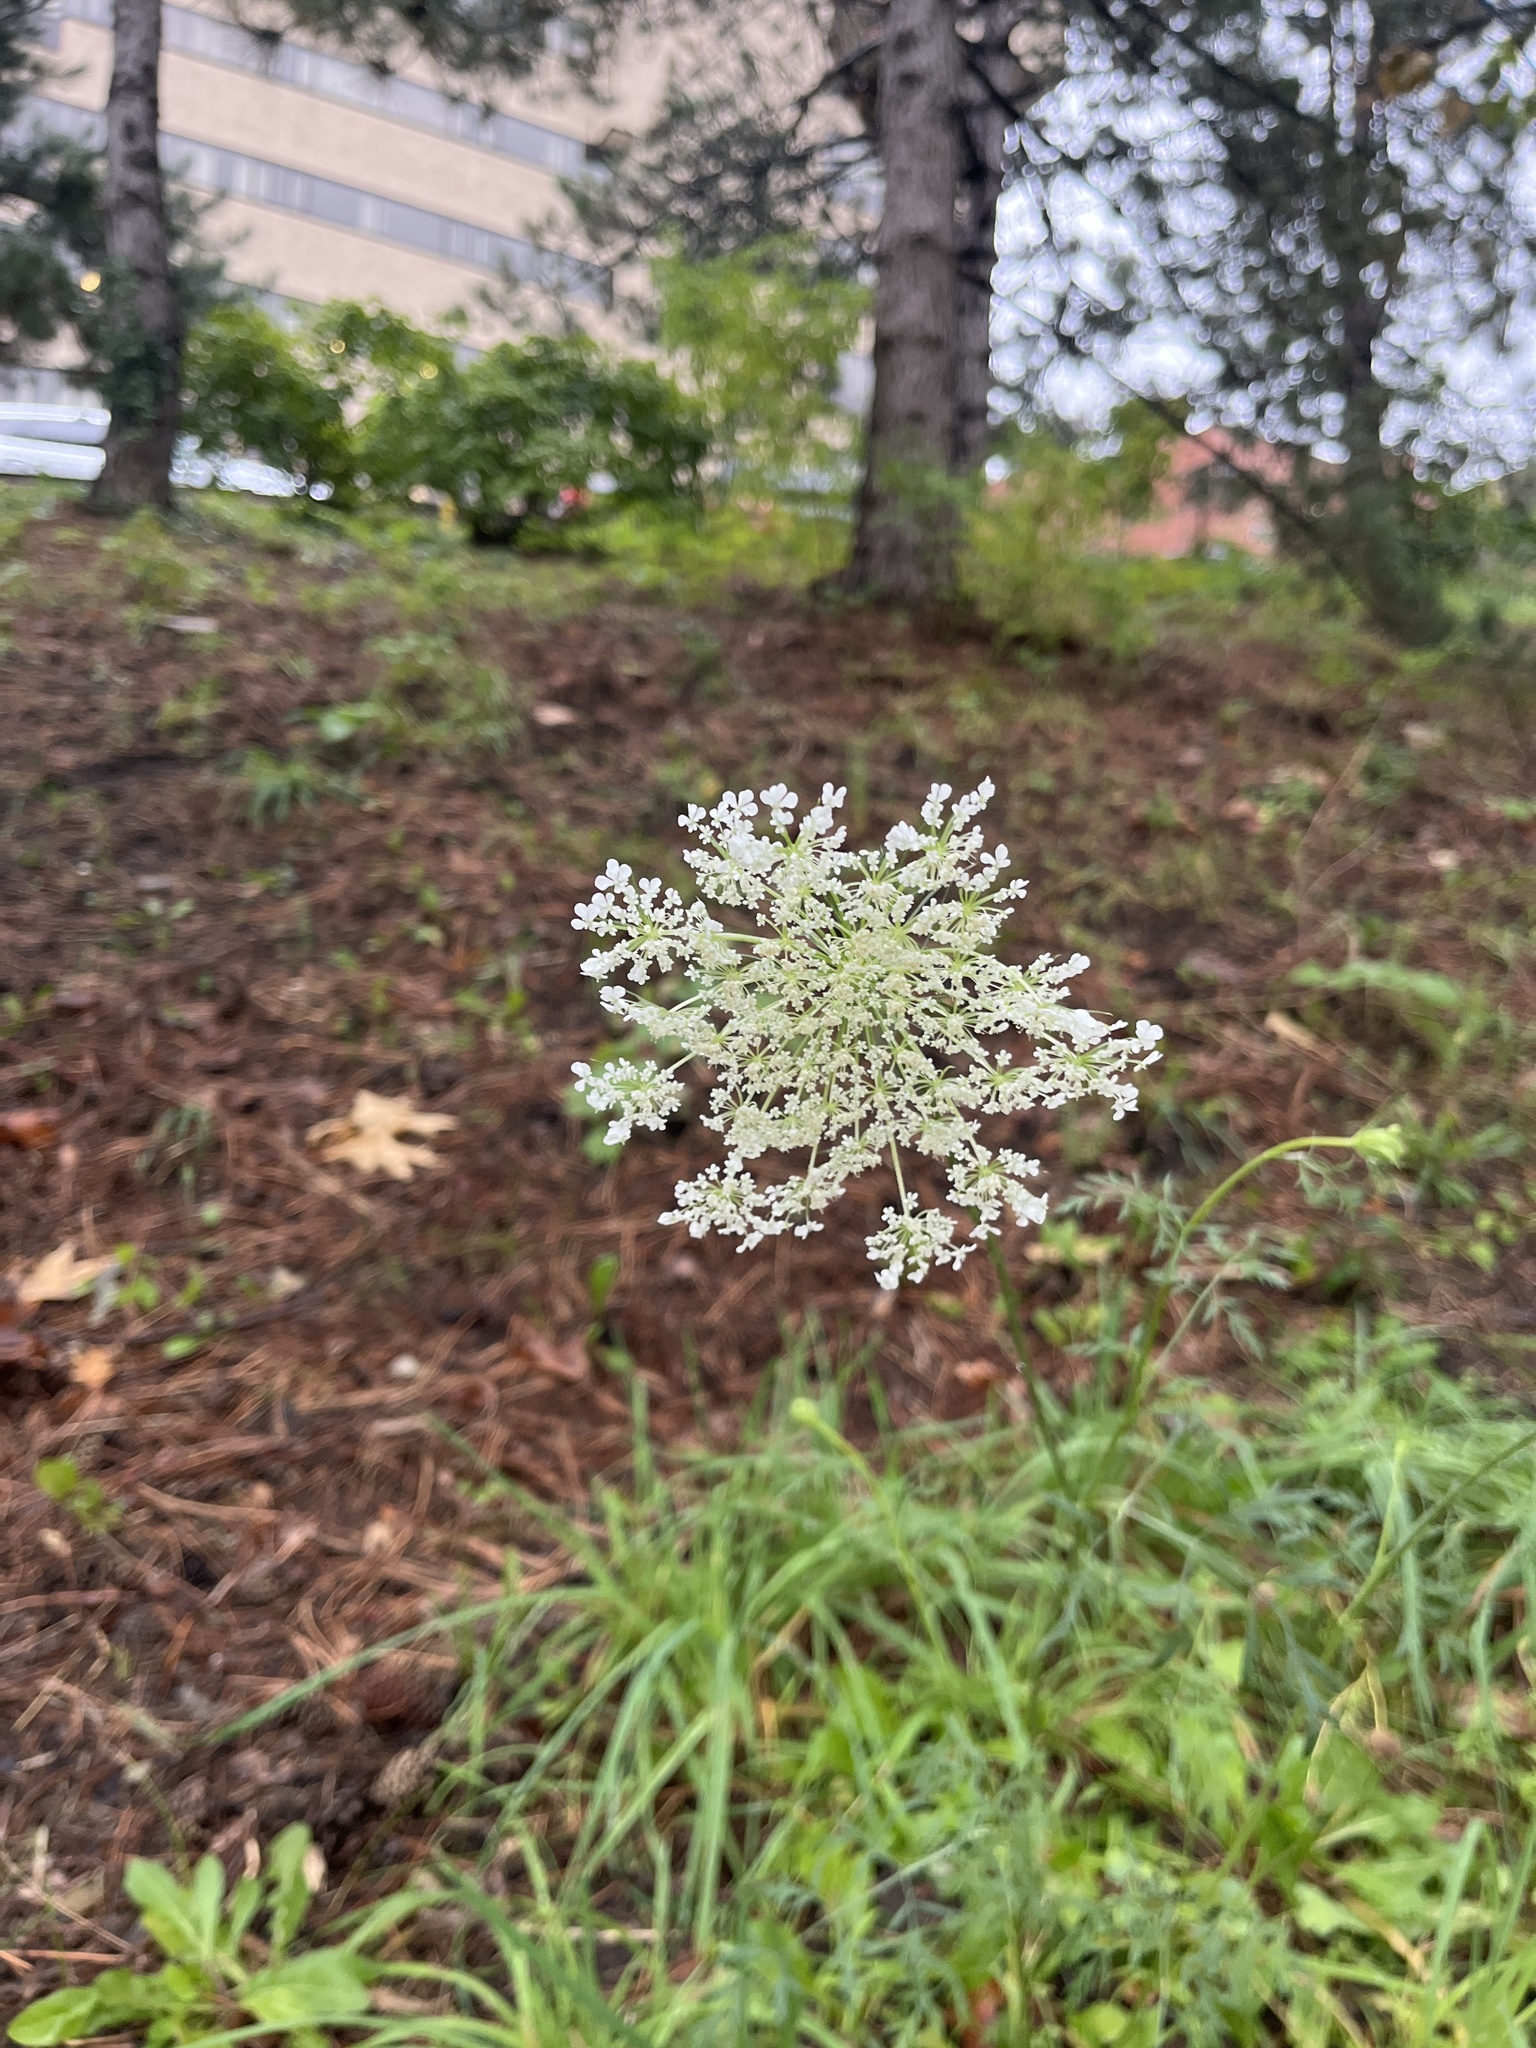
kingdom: Plantae
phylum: Tracheophyta
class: Magnoliopsida
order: Apiales
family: Apiaceae
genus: Daucus
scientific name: Daucus carota
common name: Wild carrot
